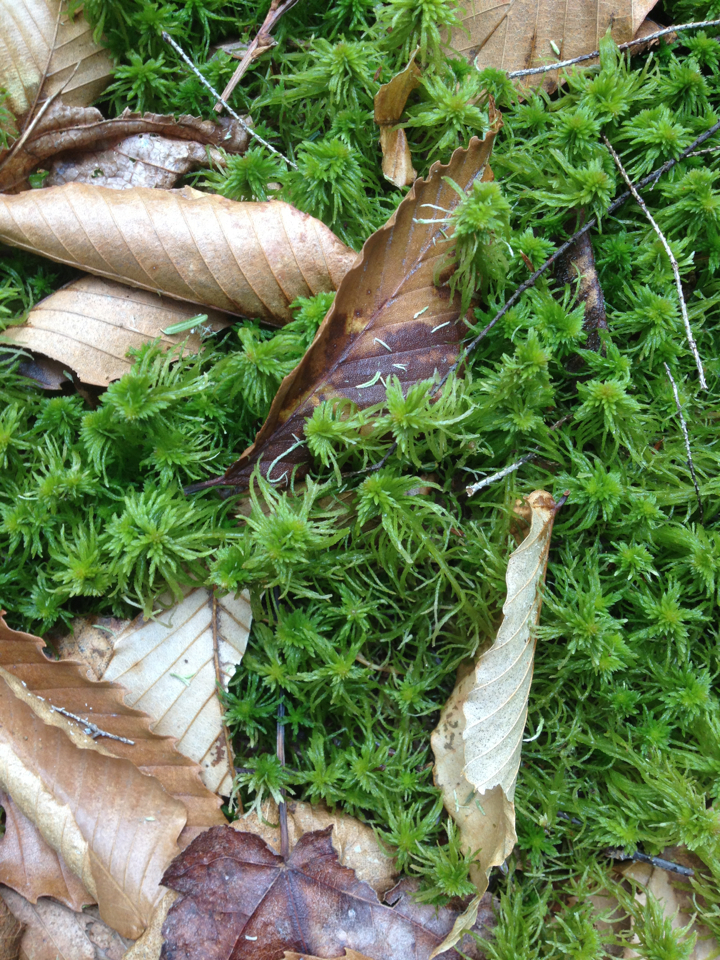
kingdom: Plantae
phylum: Bryophyta
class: Sphagnopsida
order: Sphagnales
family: Sphagnaceae
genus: Sphagnum
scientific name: Sphagnum
